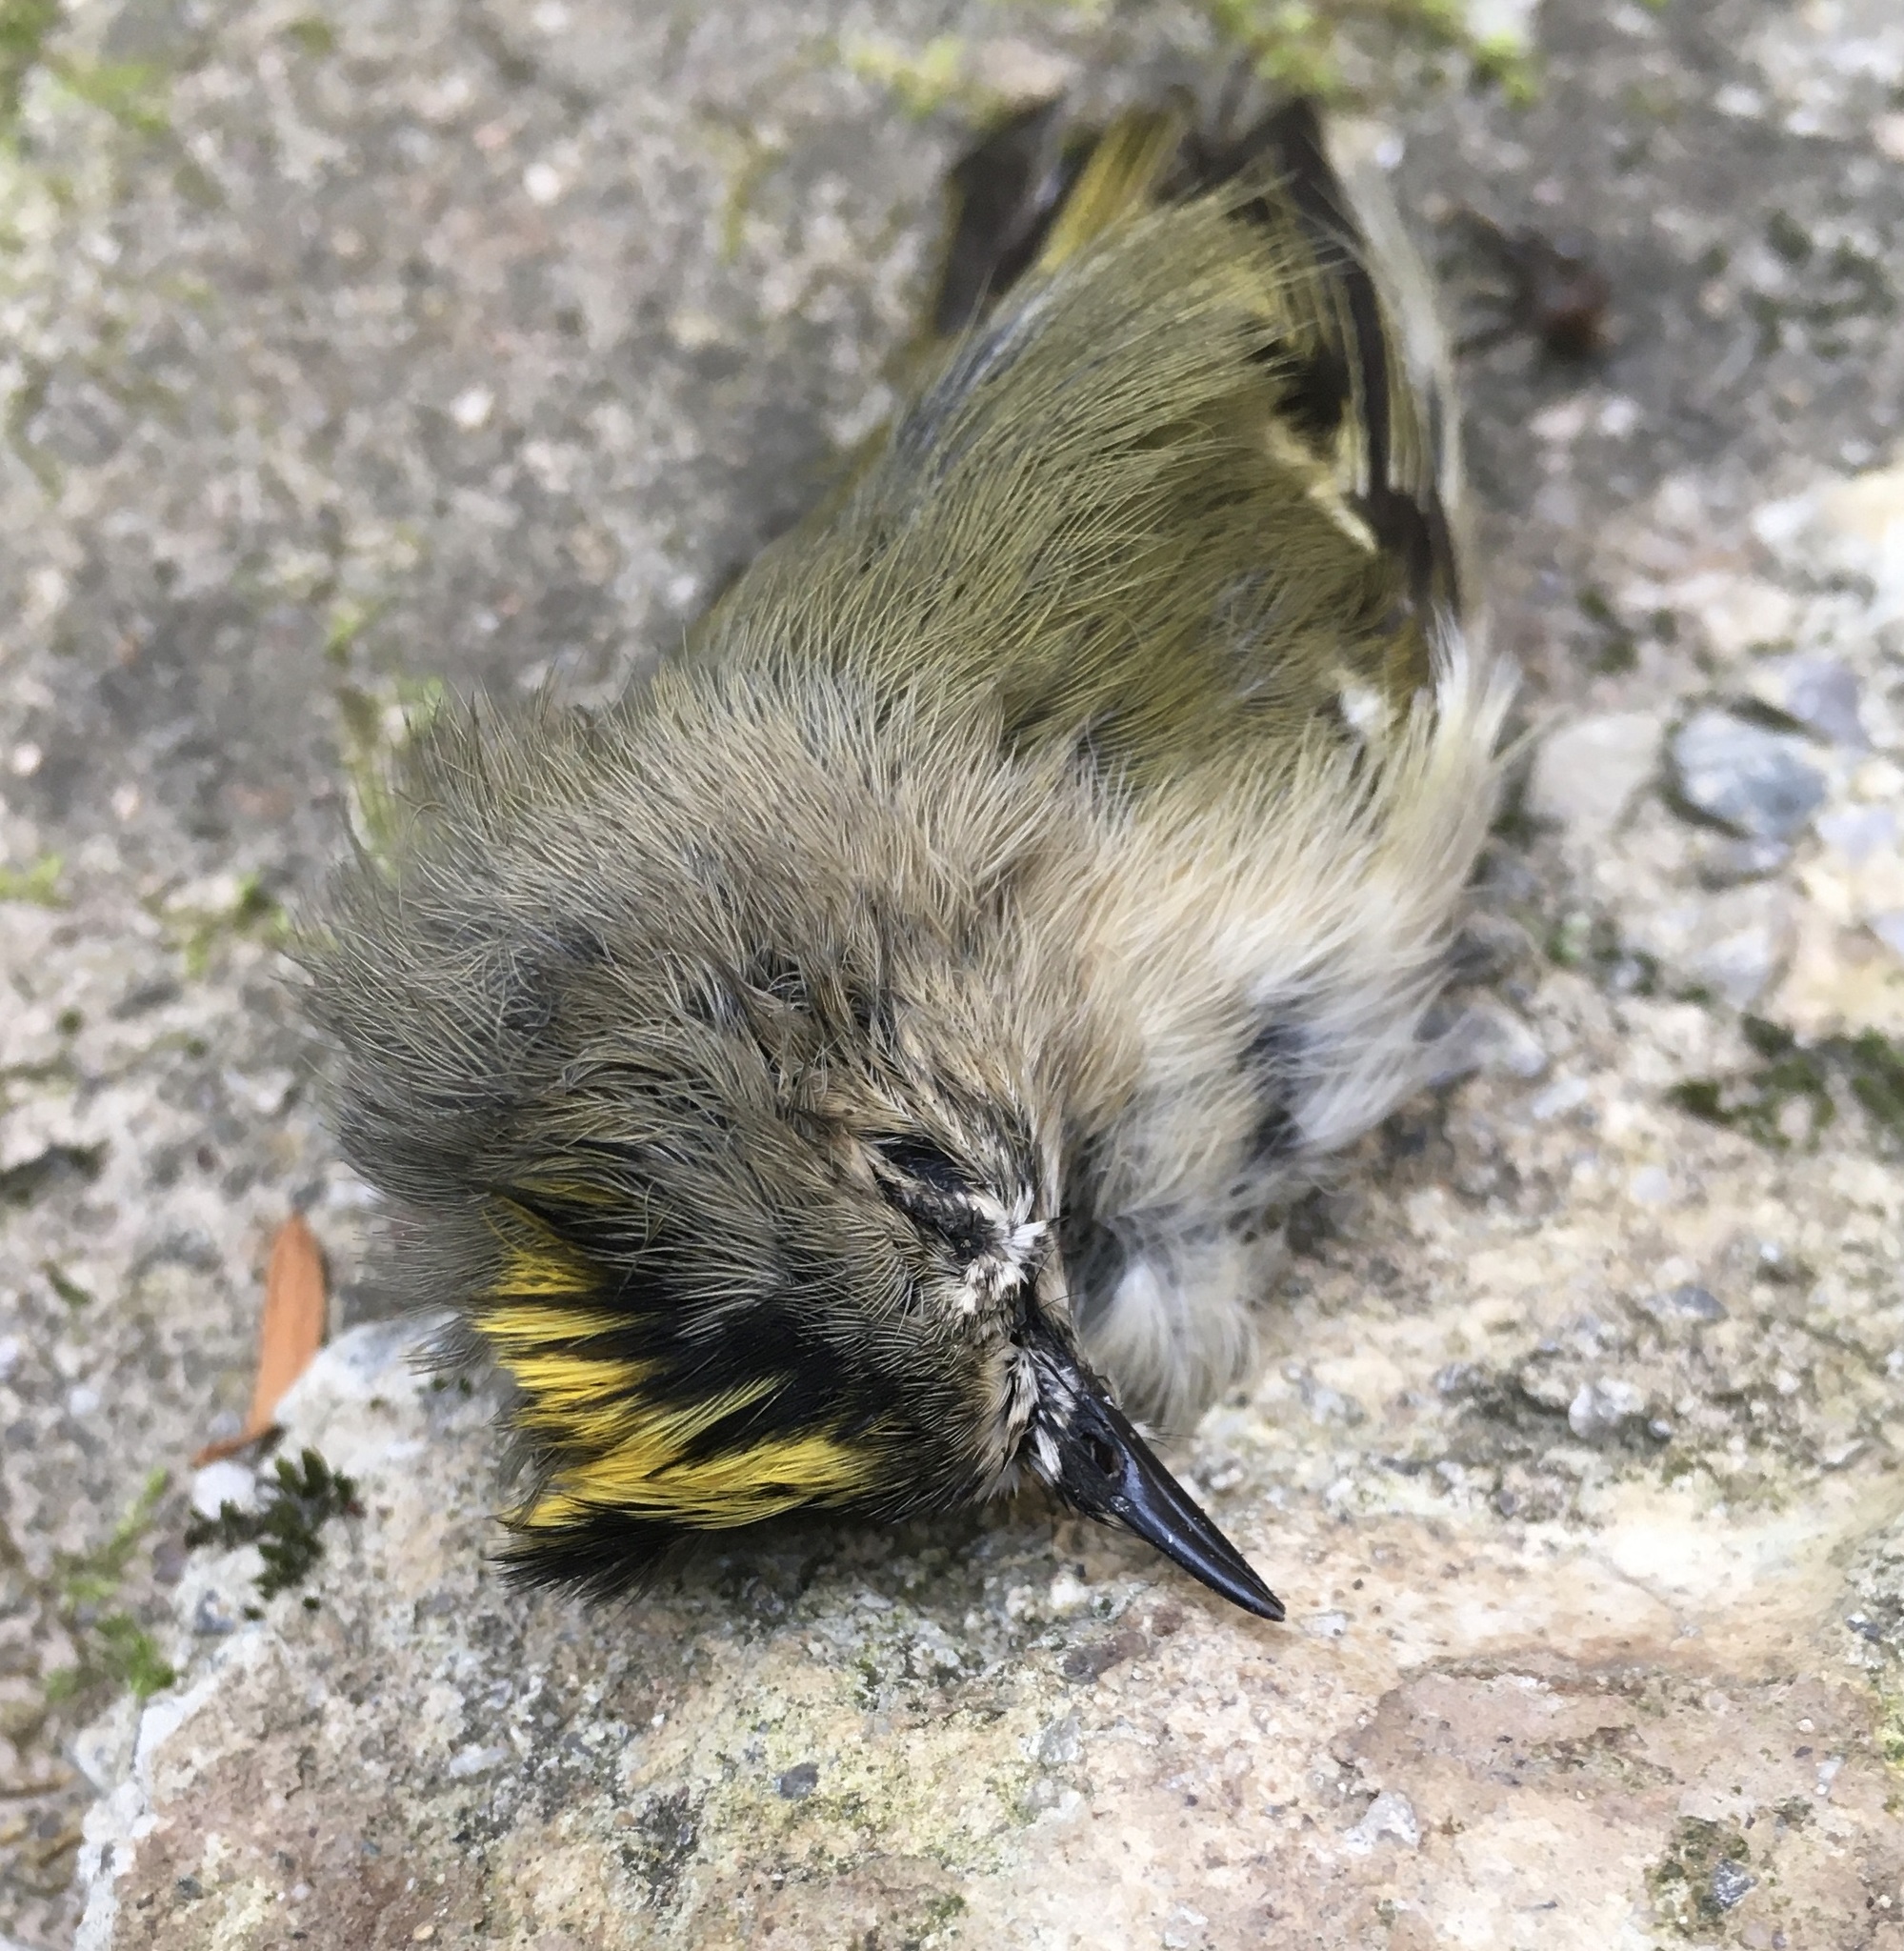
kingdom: Animalia
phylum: Chordata
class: Aves
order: Passeriformes
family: Regulidae
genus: Regulus
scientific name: Regulus regulus
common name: Goldcrest
